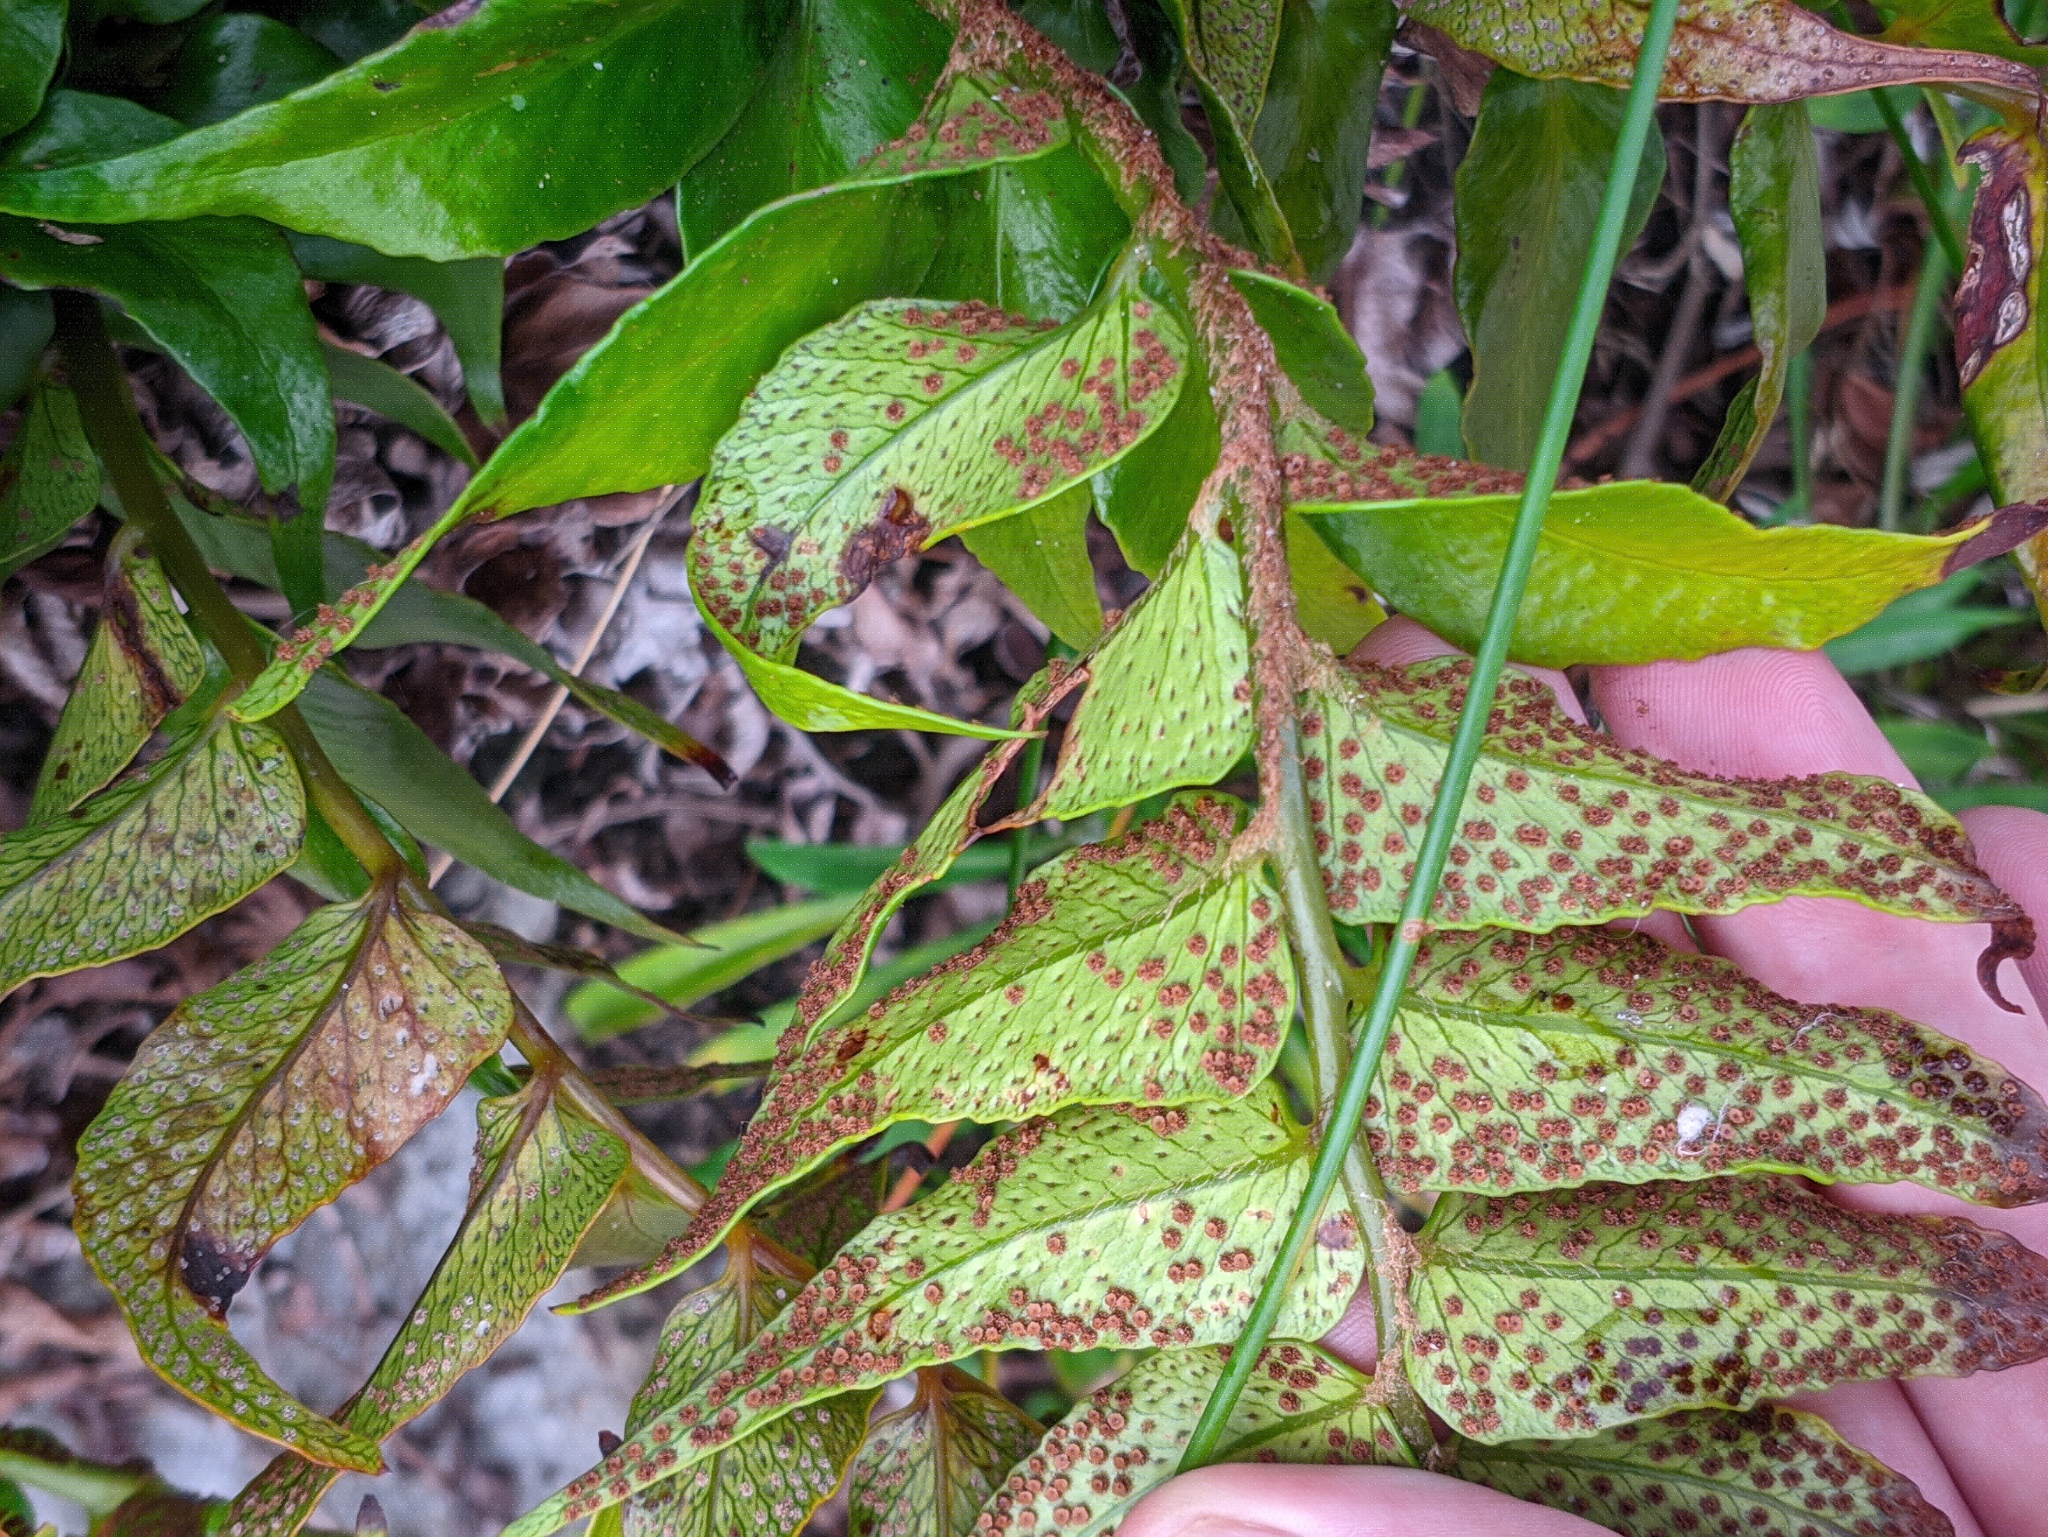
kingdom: Plantae
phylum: Tracheophyta
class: Polypodiopsida
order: Polypodiales
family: Dryopteridaceae
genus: Cyrtomium
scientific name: Cyrtomium falcatum
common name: House holly-fern
